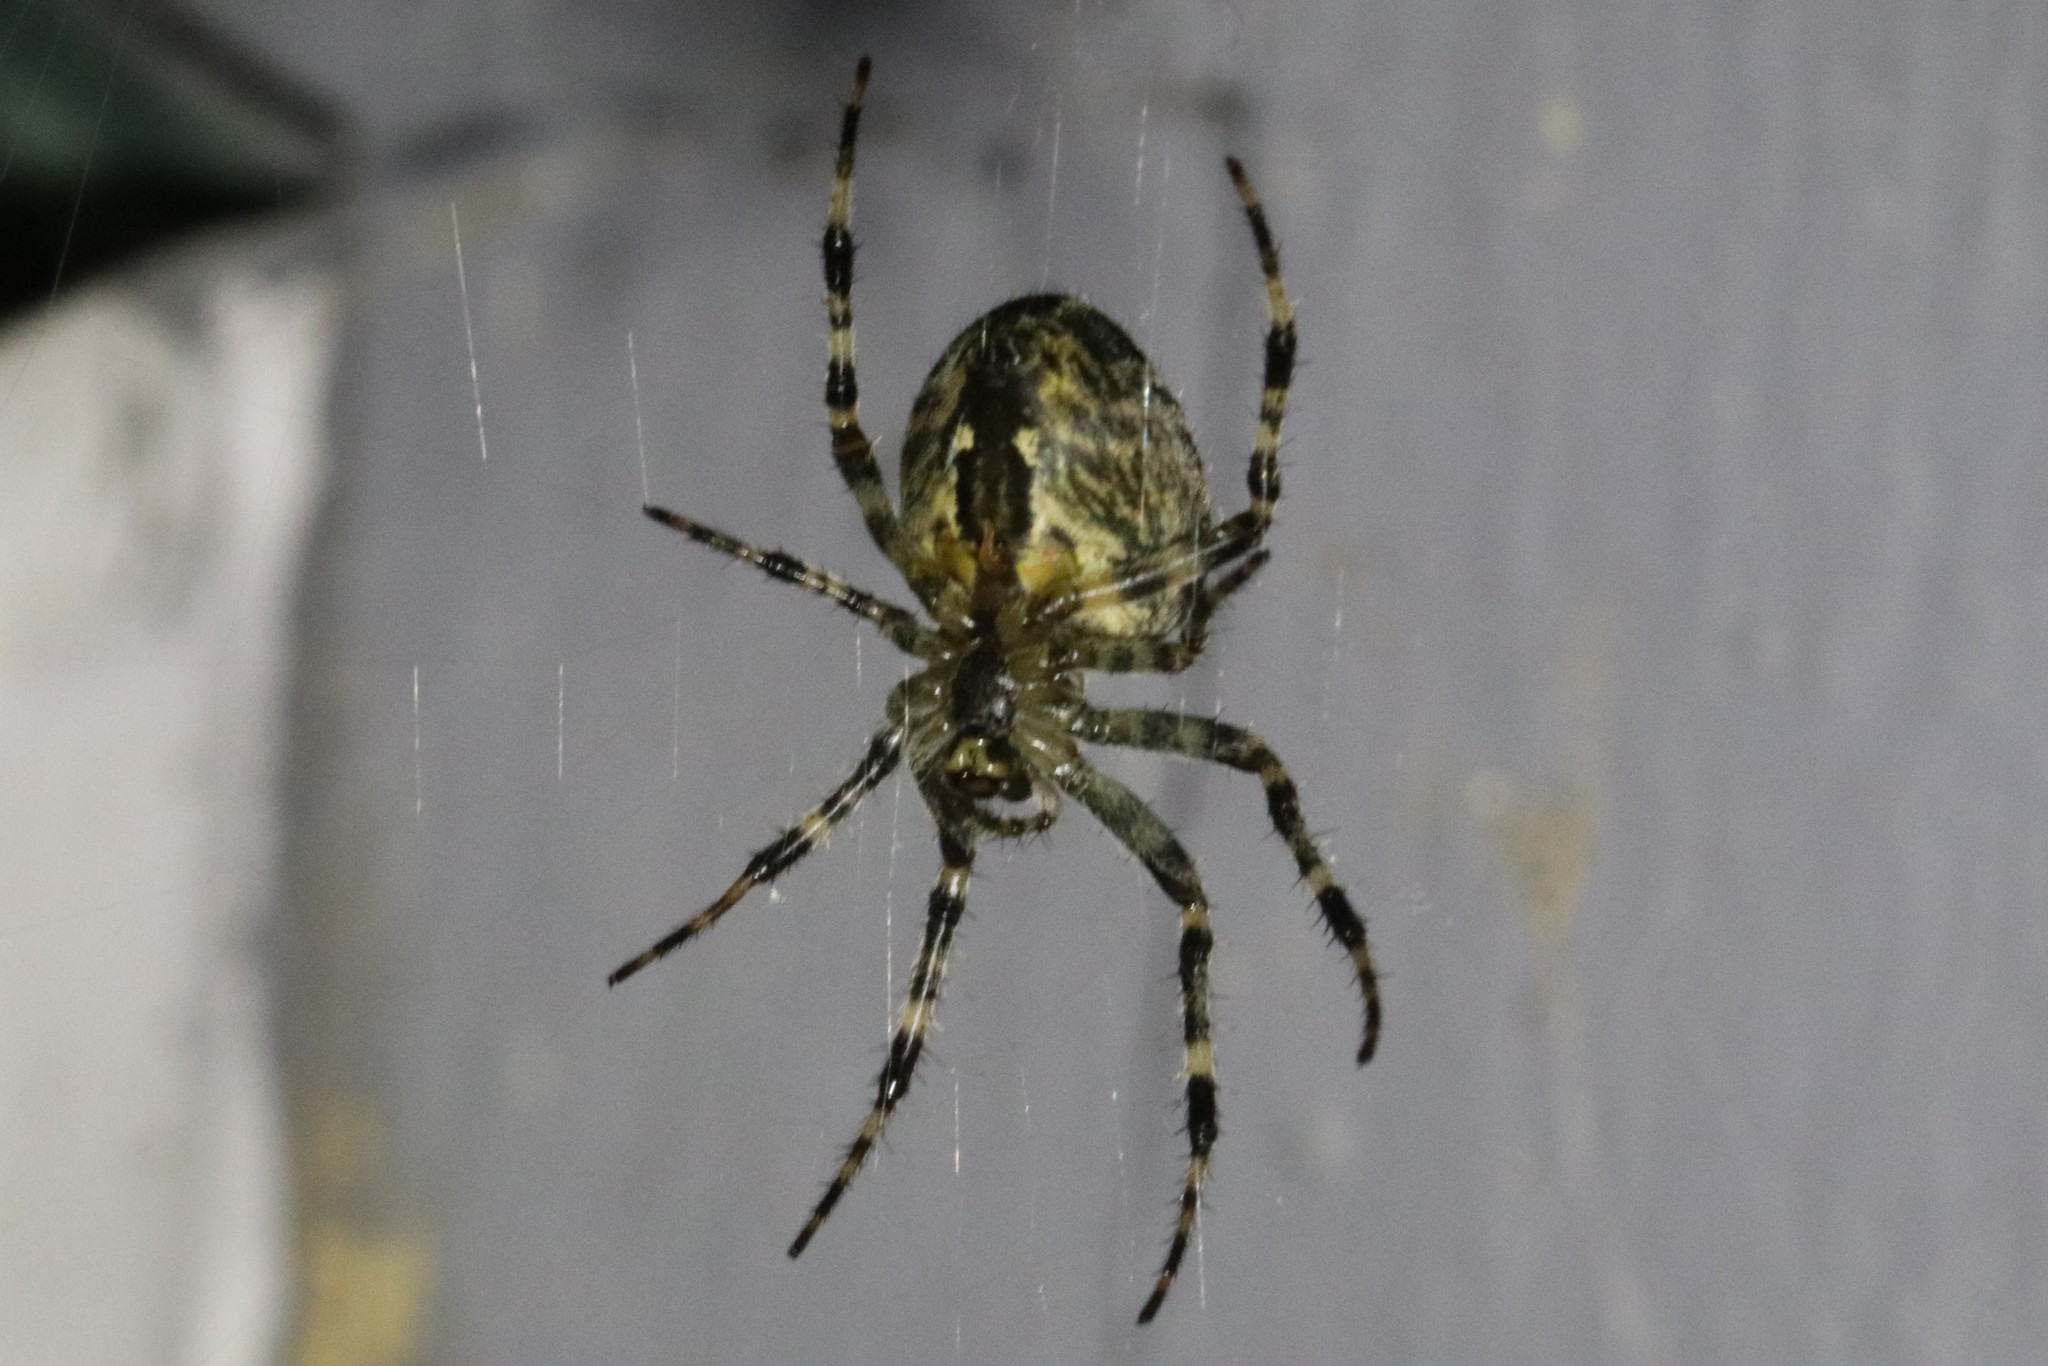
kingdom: Animalia
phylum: Arthropoda
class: Arachnida
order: Araneae
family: Araneidae
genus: Araneus
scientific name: Araneus diadematus
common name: Cross orbweaver
